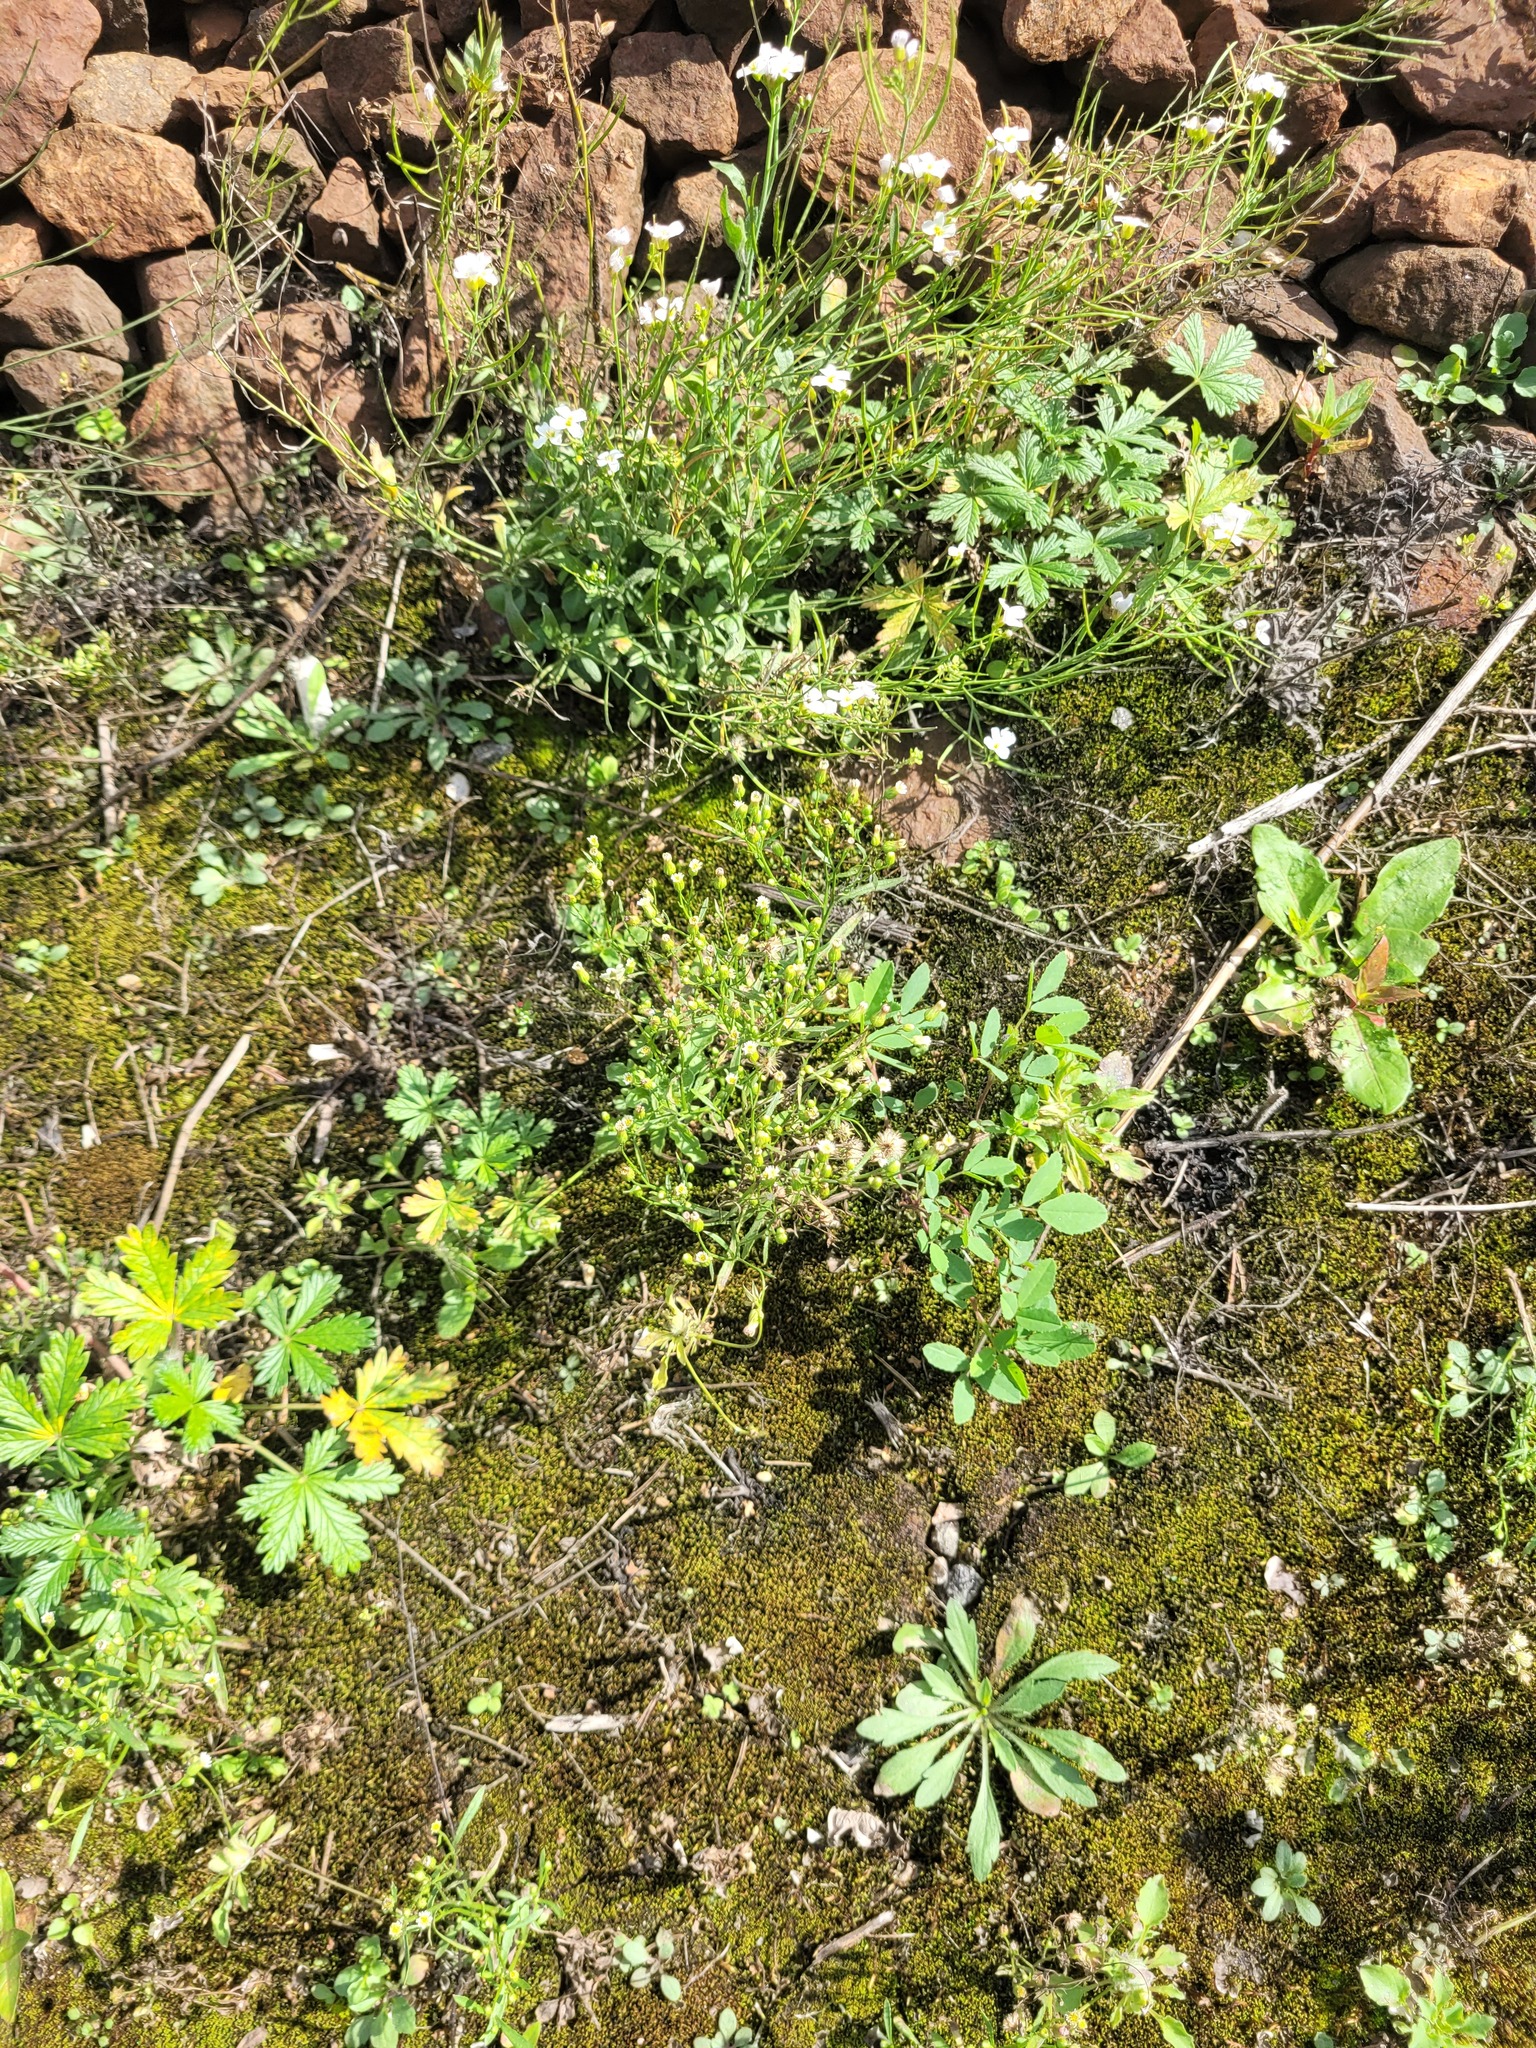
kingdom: Plantae
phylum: Tracheophyta
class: Magnoliopsida
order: Asterales
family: Asteraceae
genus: Erigeron
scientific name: Erigeron canadensis
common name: Canadian fleabane
